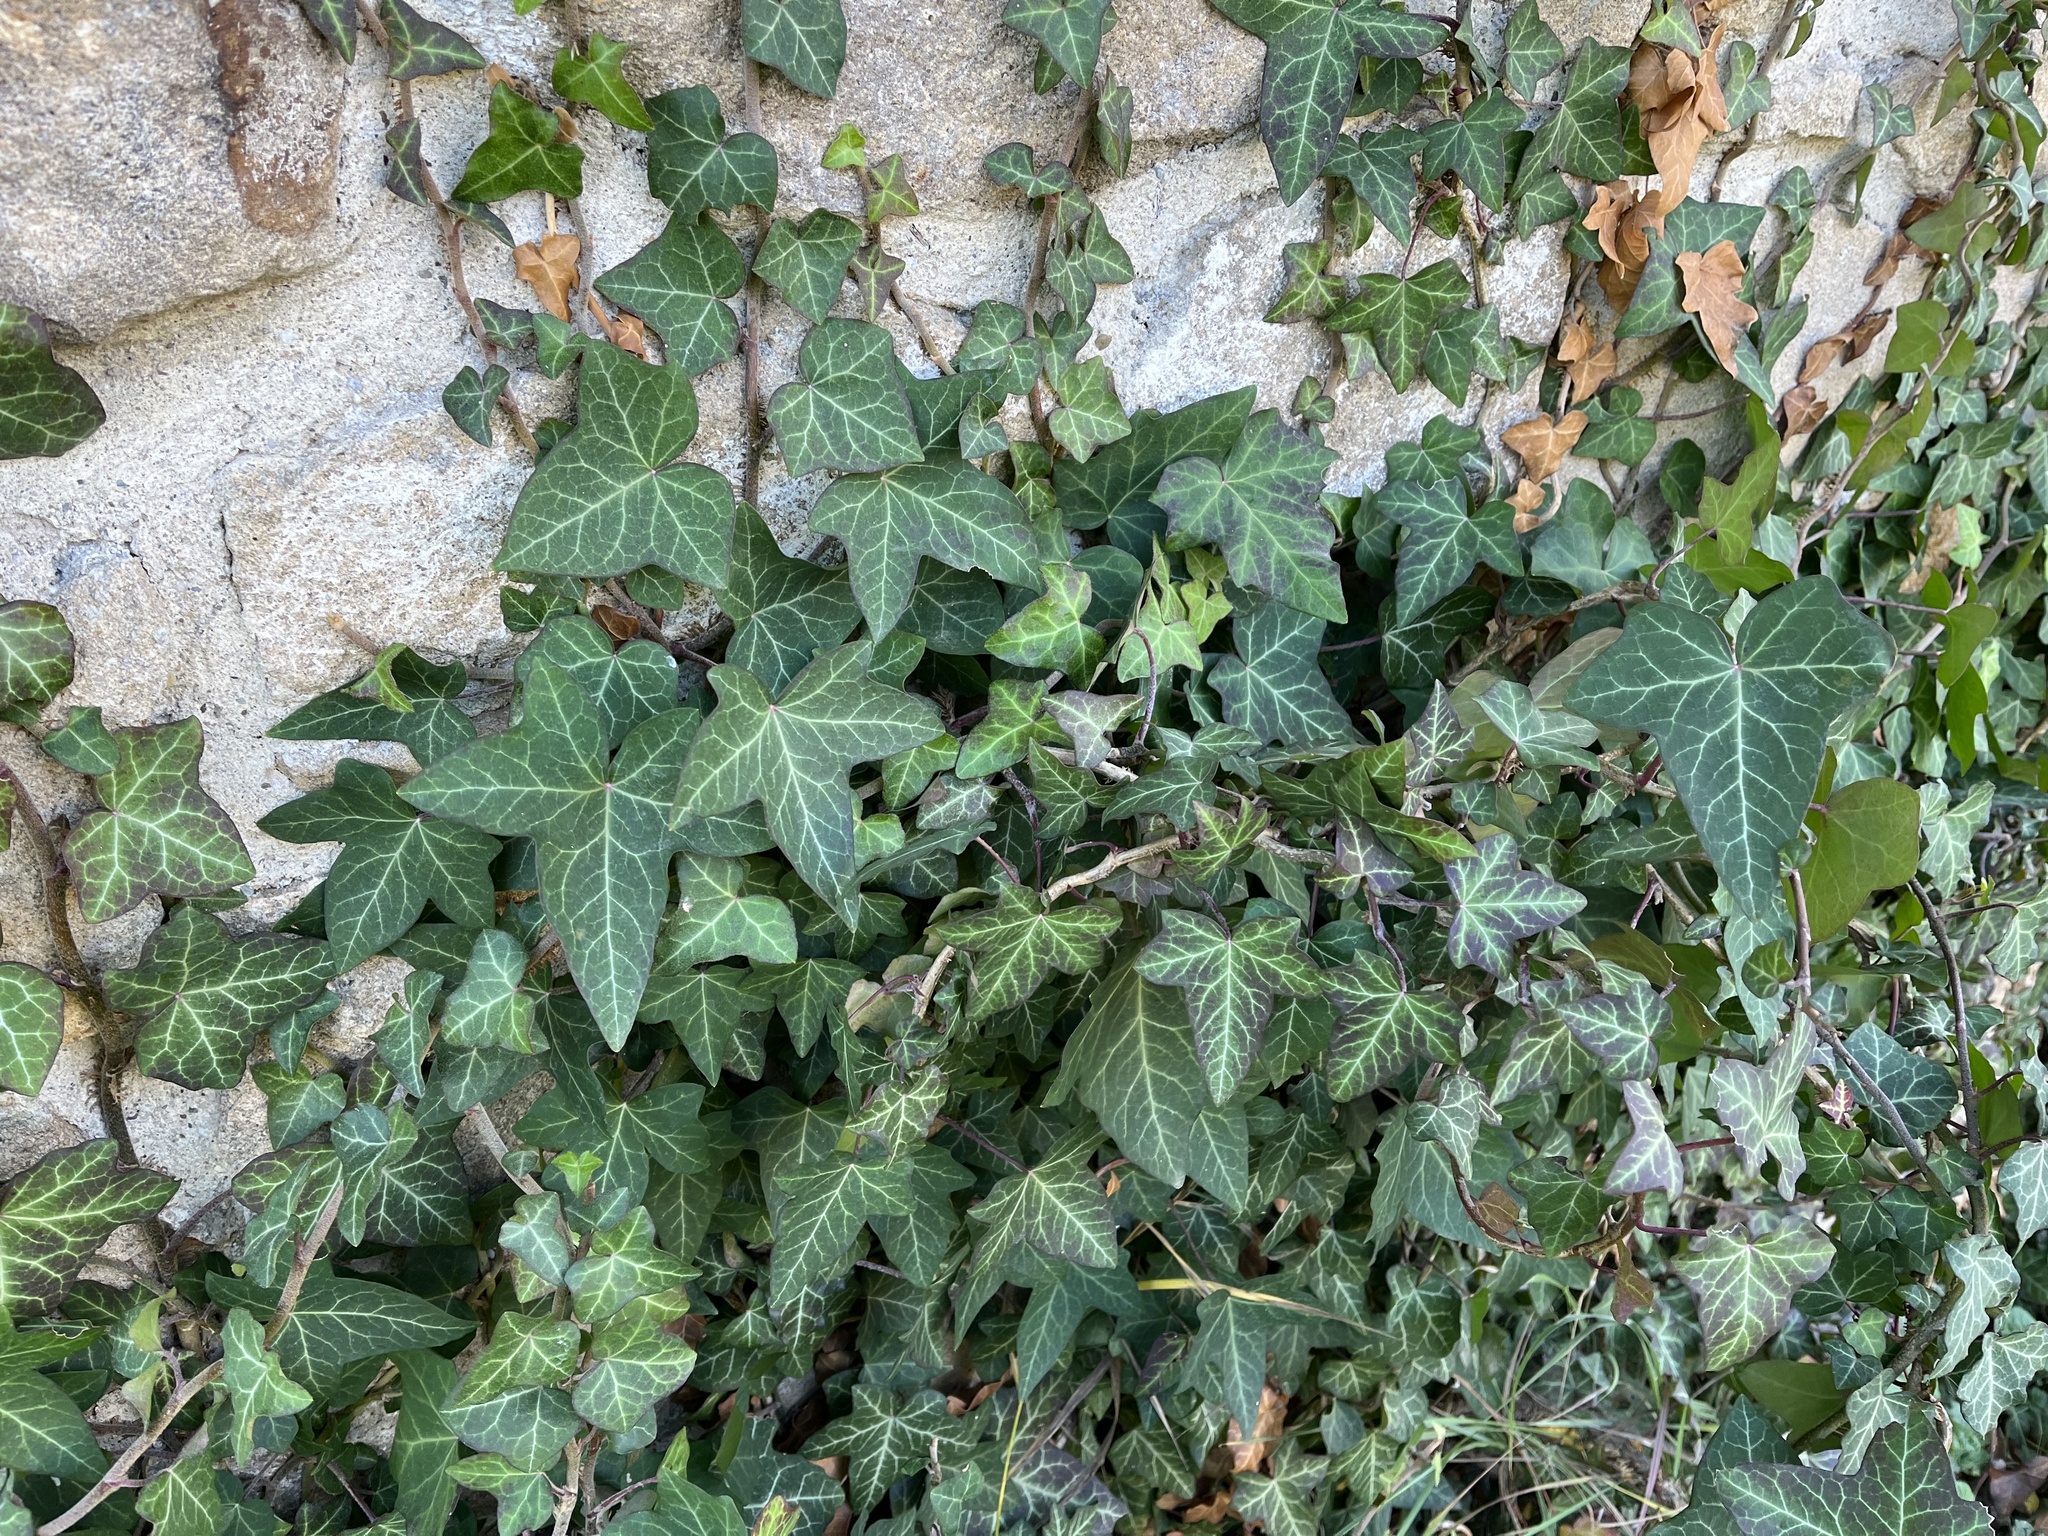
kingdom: Plantae
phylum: Tracheophyta
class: Magnoliopsida
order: Apiales
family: Araliaceae
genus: Hedera
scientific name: Hedera helix
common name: Ivy
